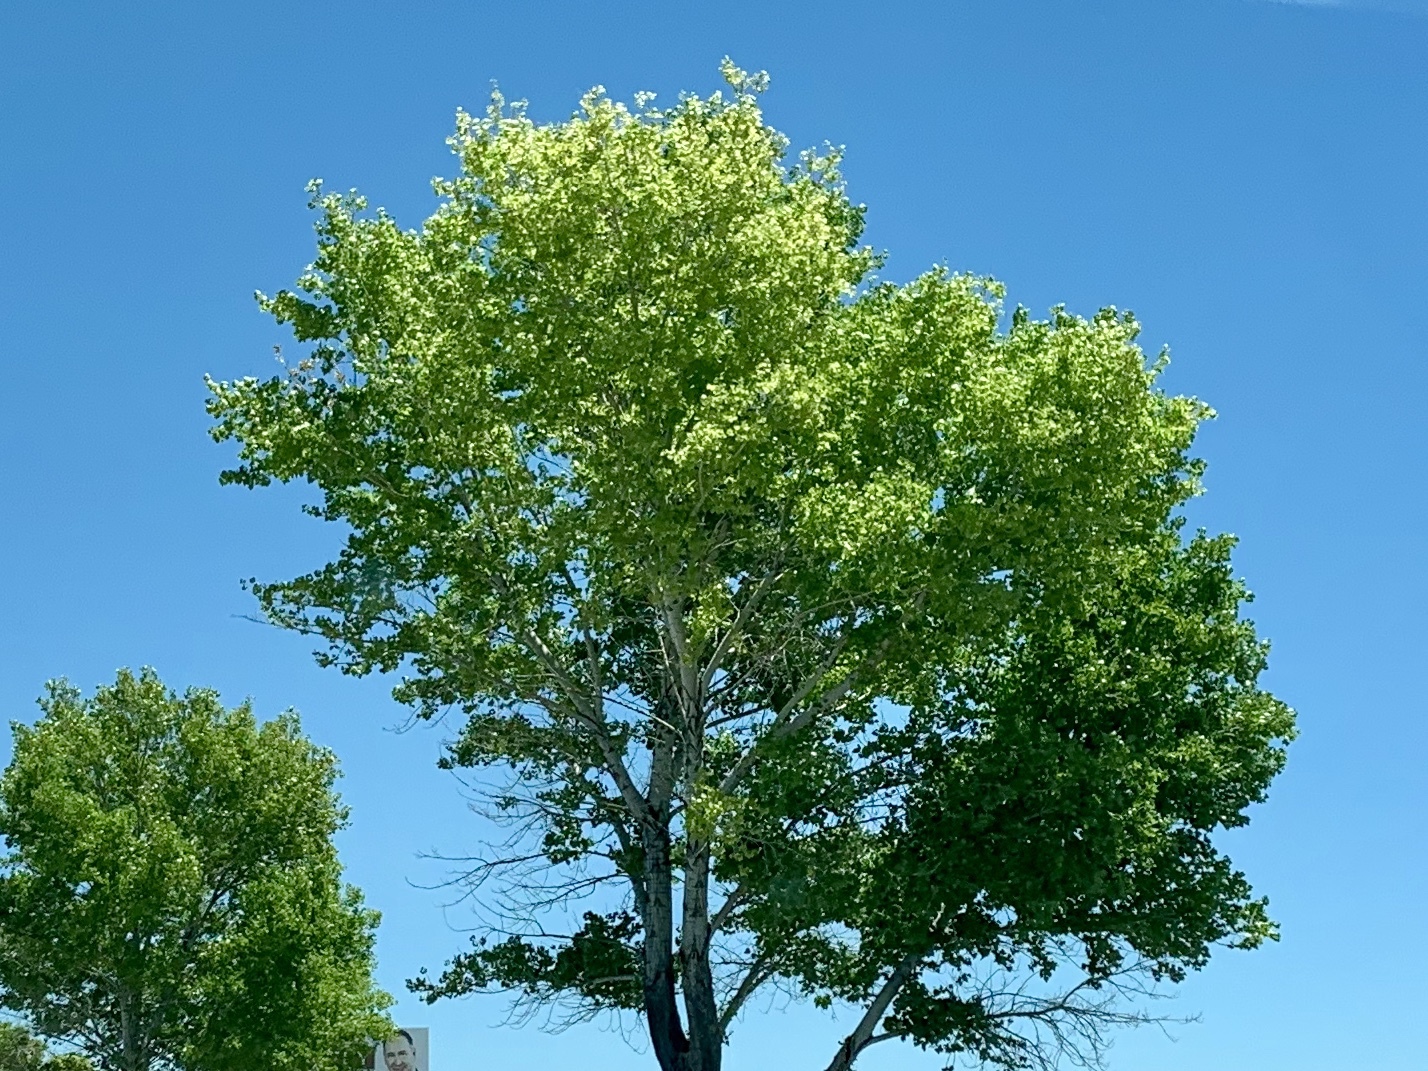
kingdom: Plantae
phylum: Tracheophyta
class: Magnoliopsida
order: Malpighiales
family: Salicaceae
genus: Populus
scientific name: Populus fremontii
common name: Fremont's cottonwood
